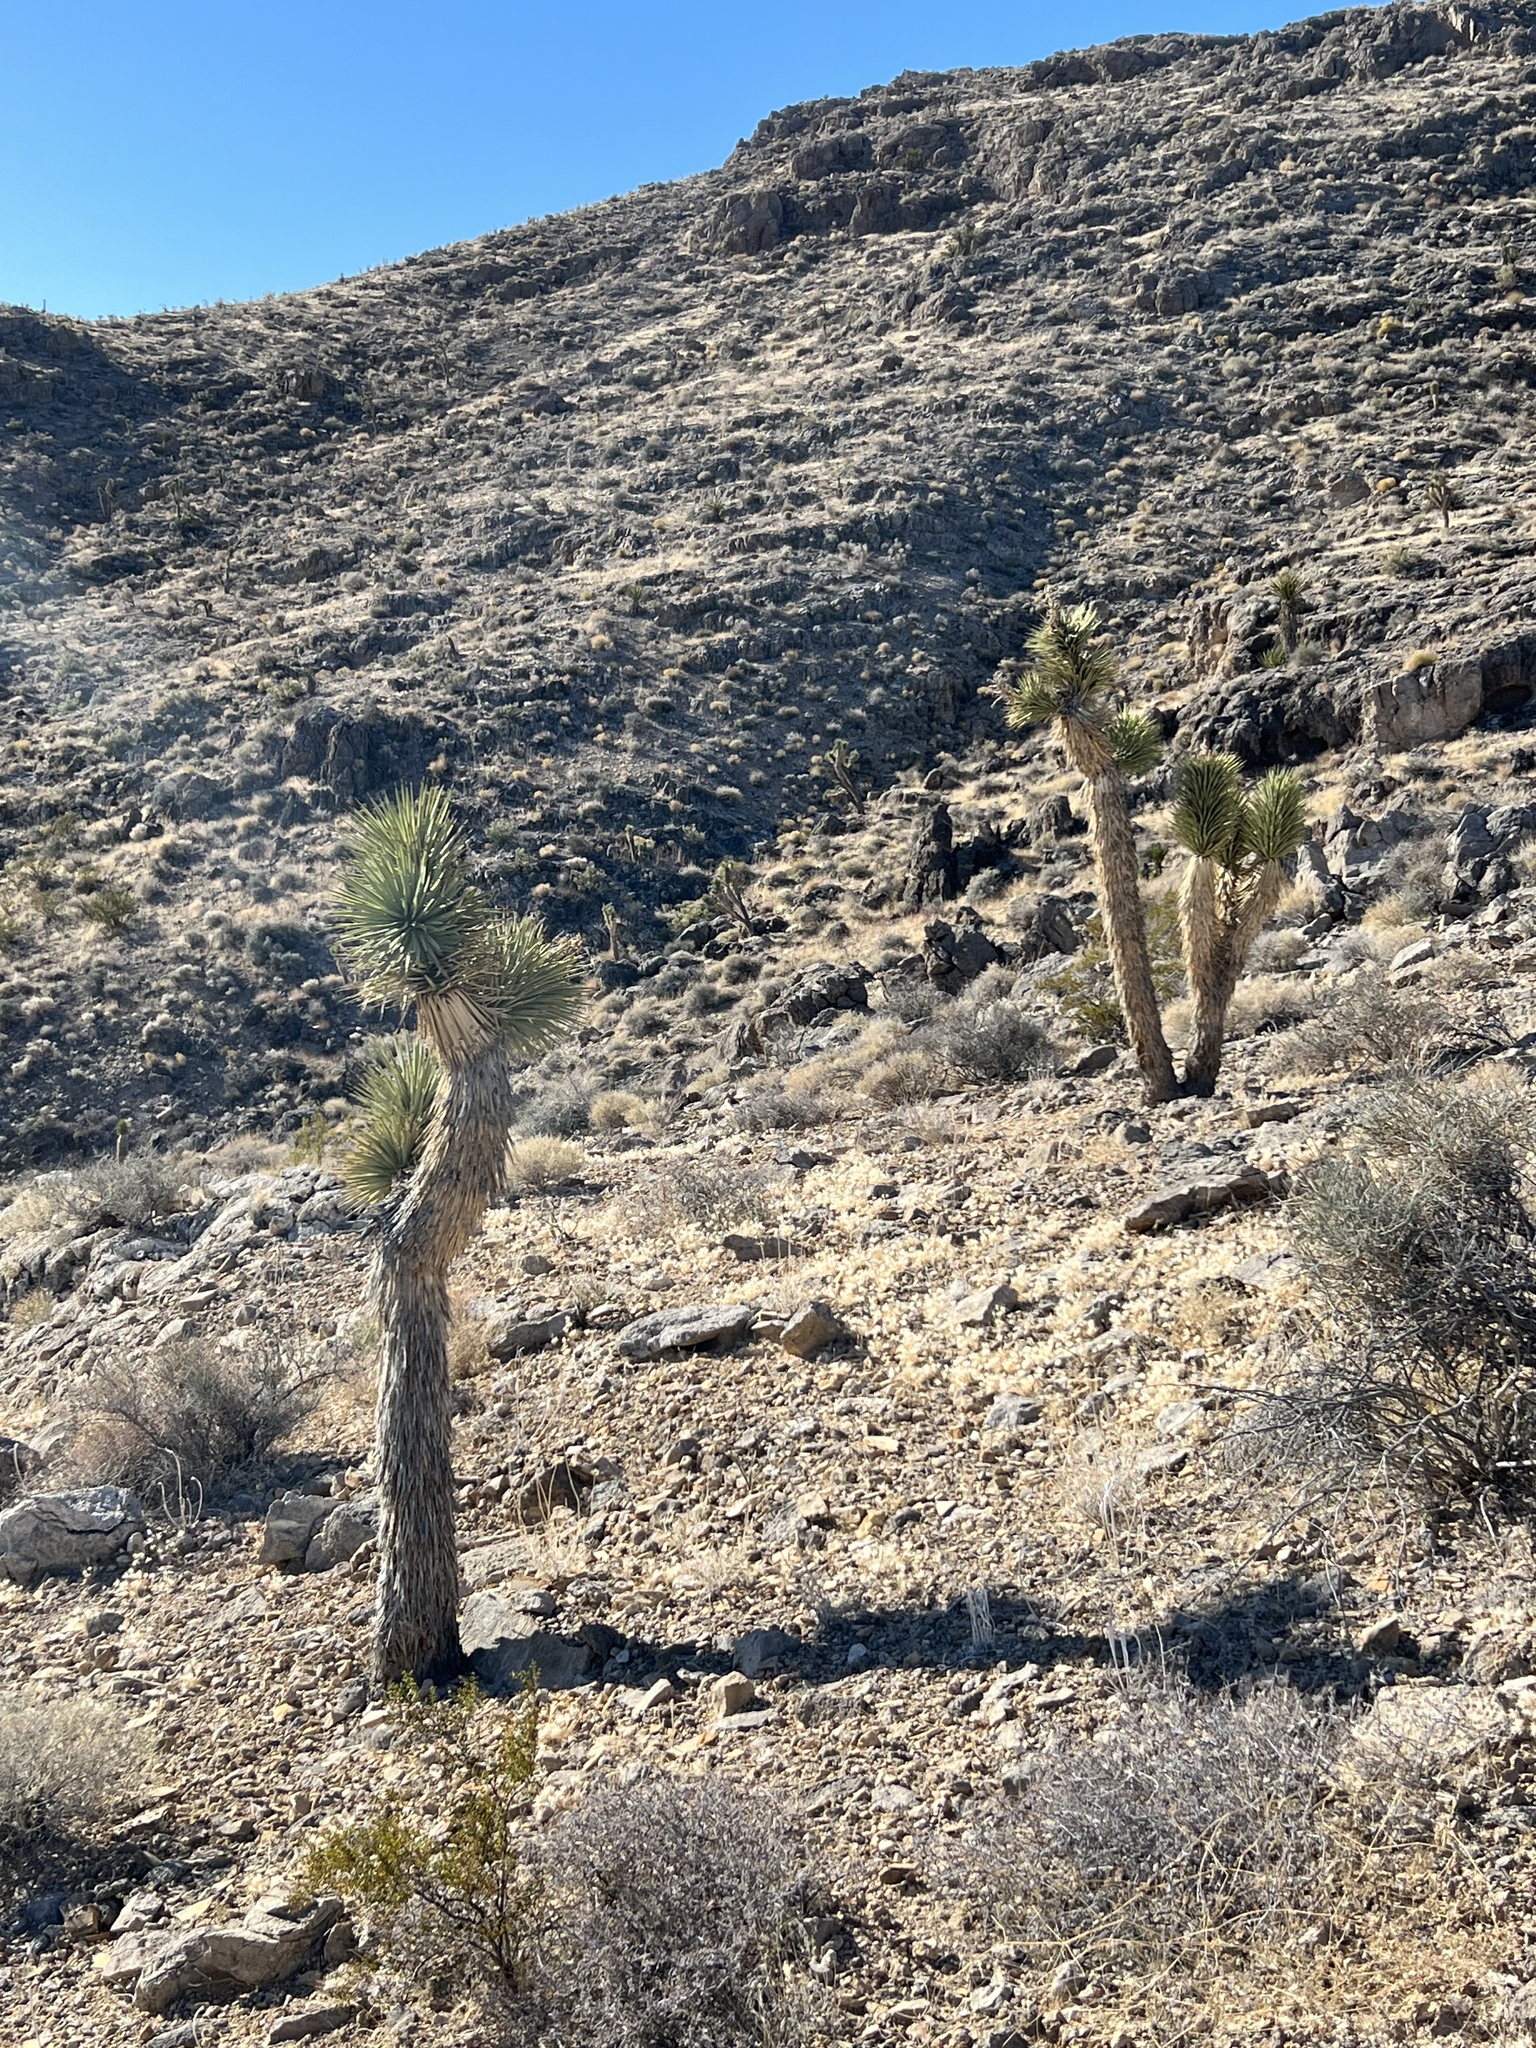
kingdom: Plantae
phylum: Tracheophyta
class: Liliopsida
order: Asparagales
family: Asparagaceae
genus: Yucca
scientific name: Yucca brevifolia
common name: Joshua tree
